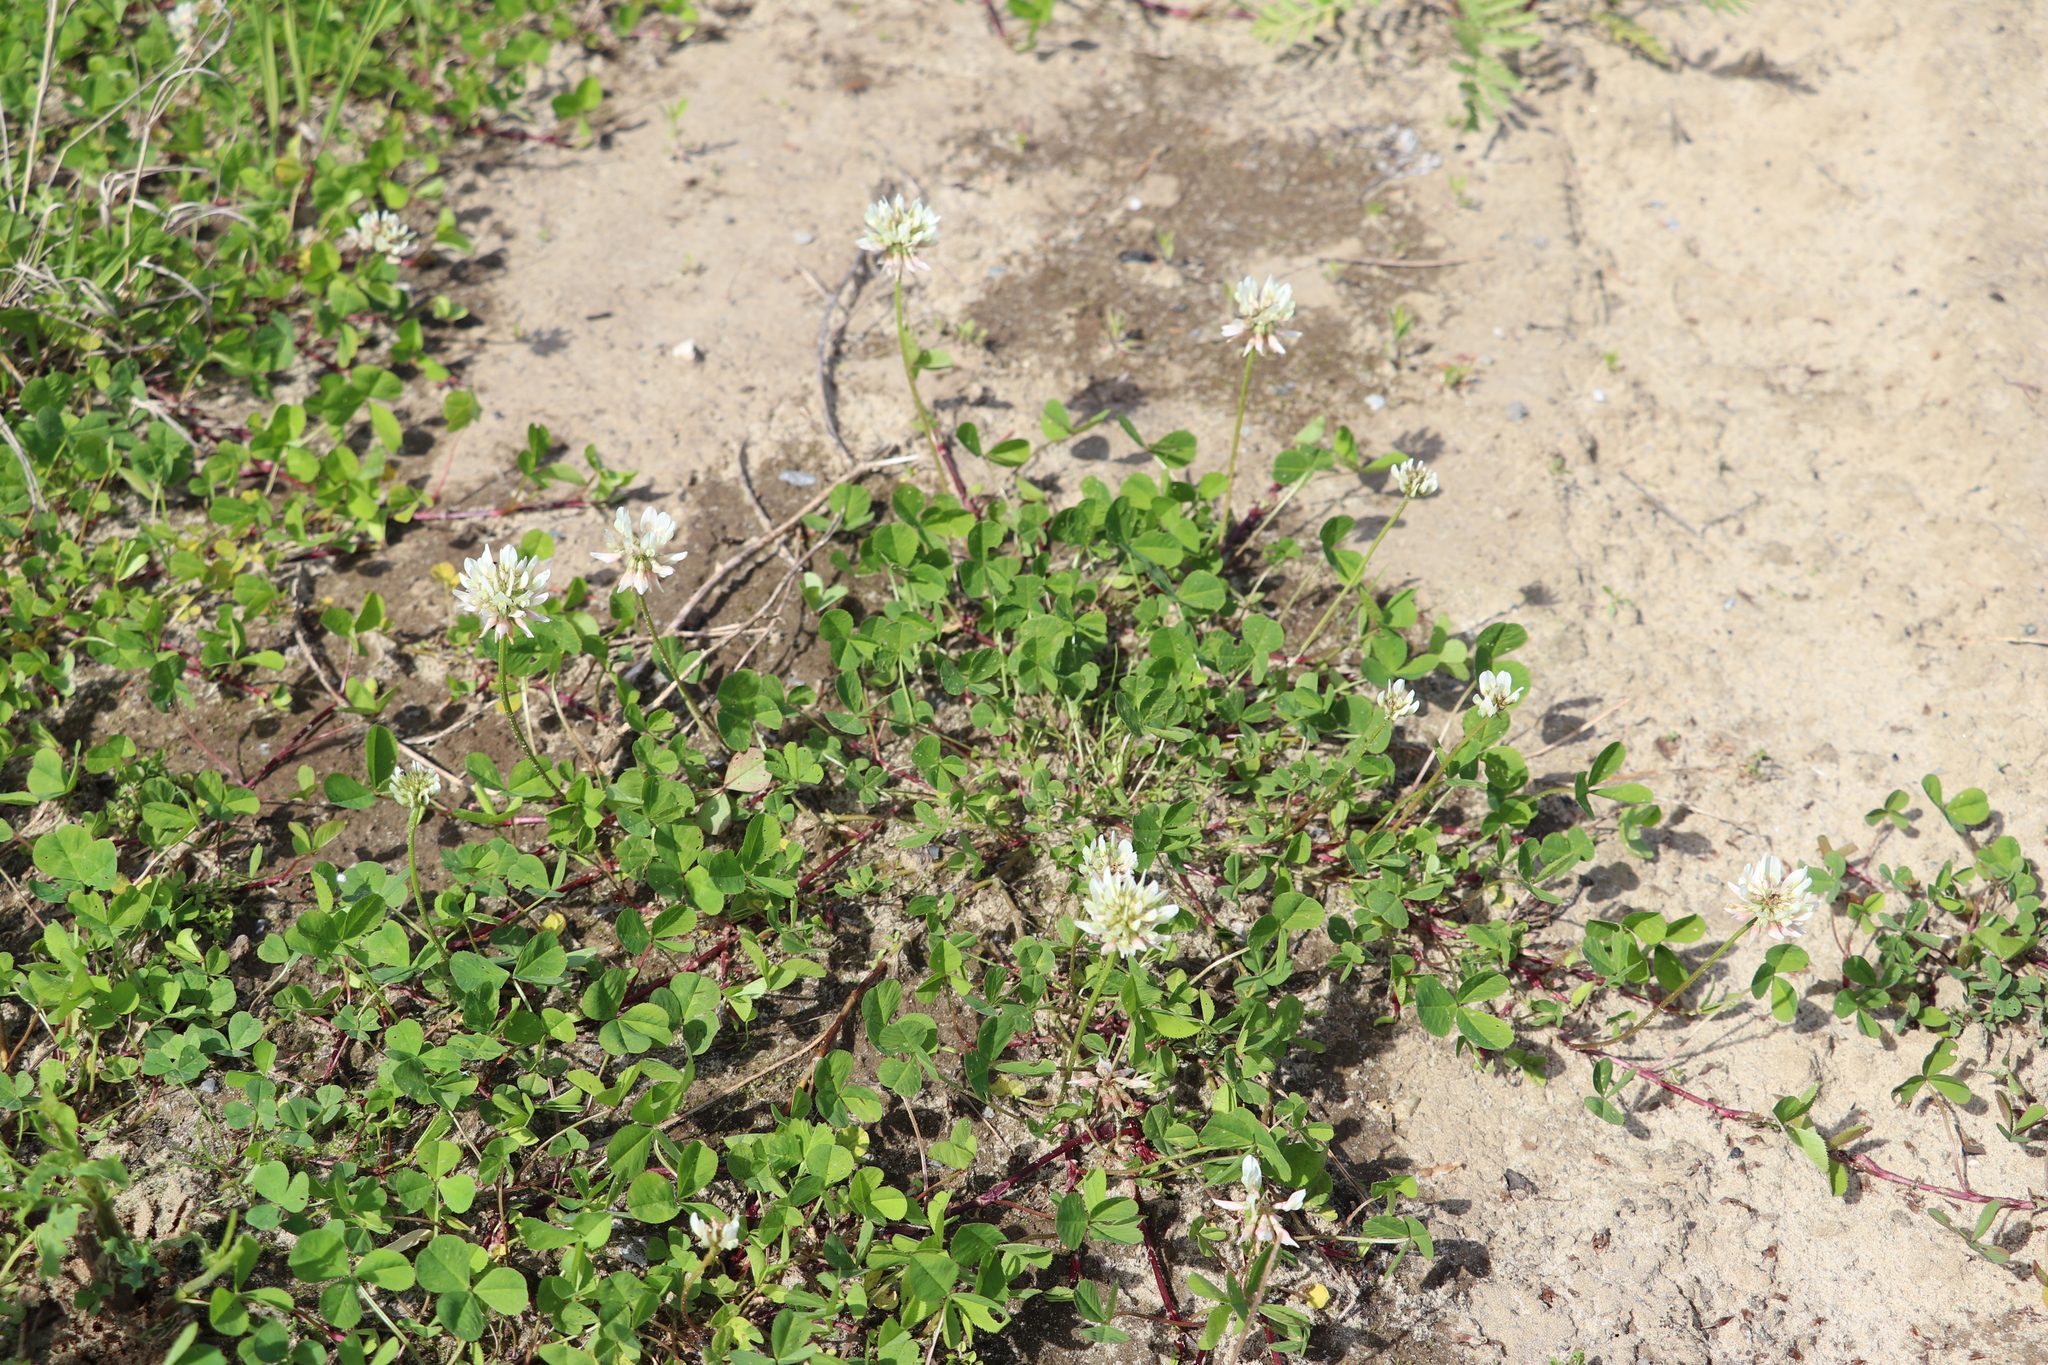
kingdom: Plantae
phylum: Tracheophyta
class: Magnoliopsida
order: Fabales
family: Fabaceae
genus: Trifolium
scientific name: Trifolium repens
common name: White clover
